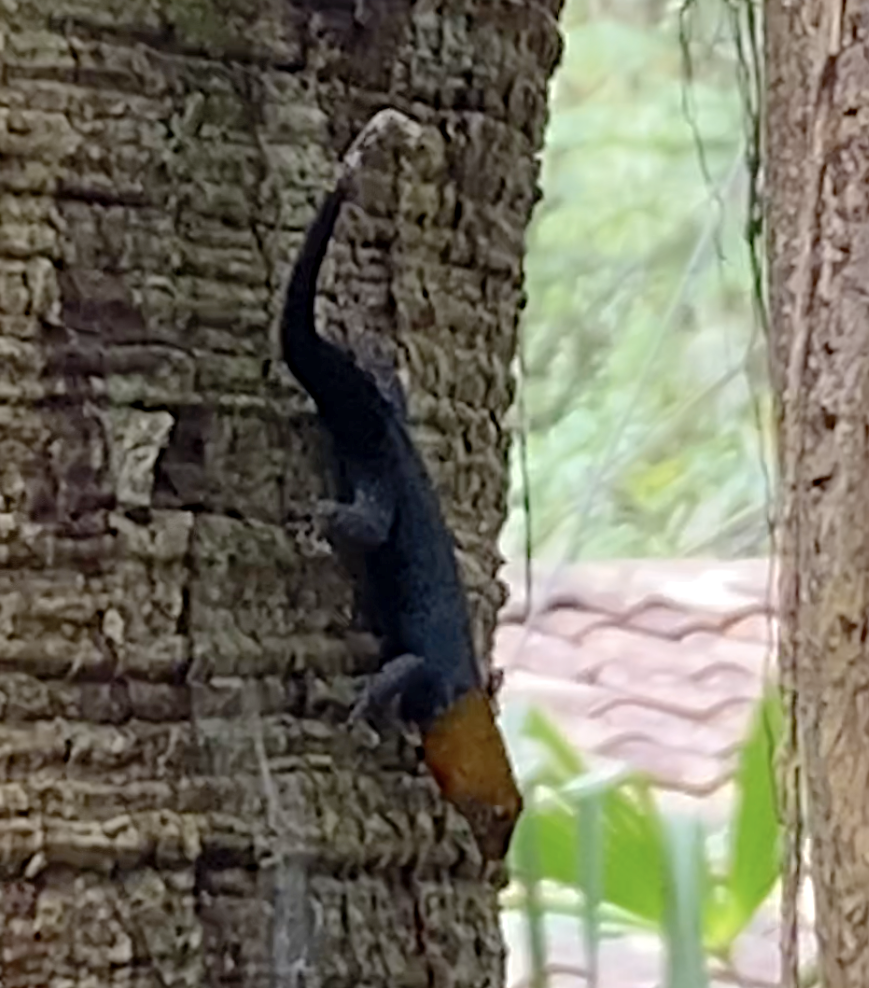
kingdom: Animalia
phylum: Chordata
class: Squamata
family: Sphaerodactylidae
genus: Gonatodes
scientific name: Gonatodes albogularis
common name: Yellow-headed gecko
